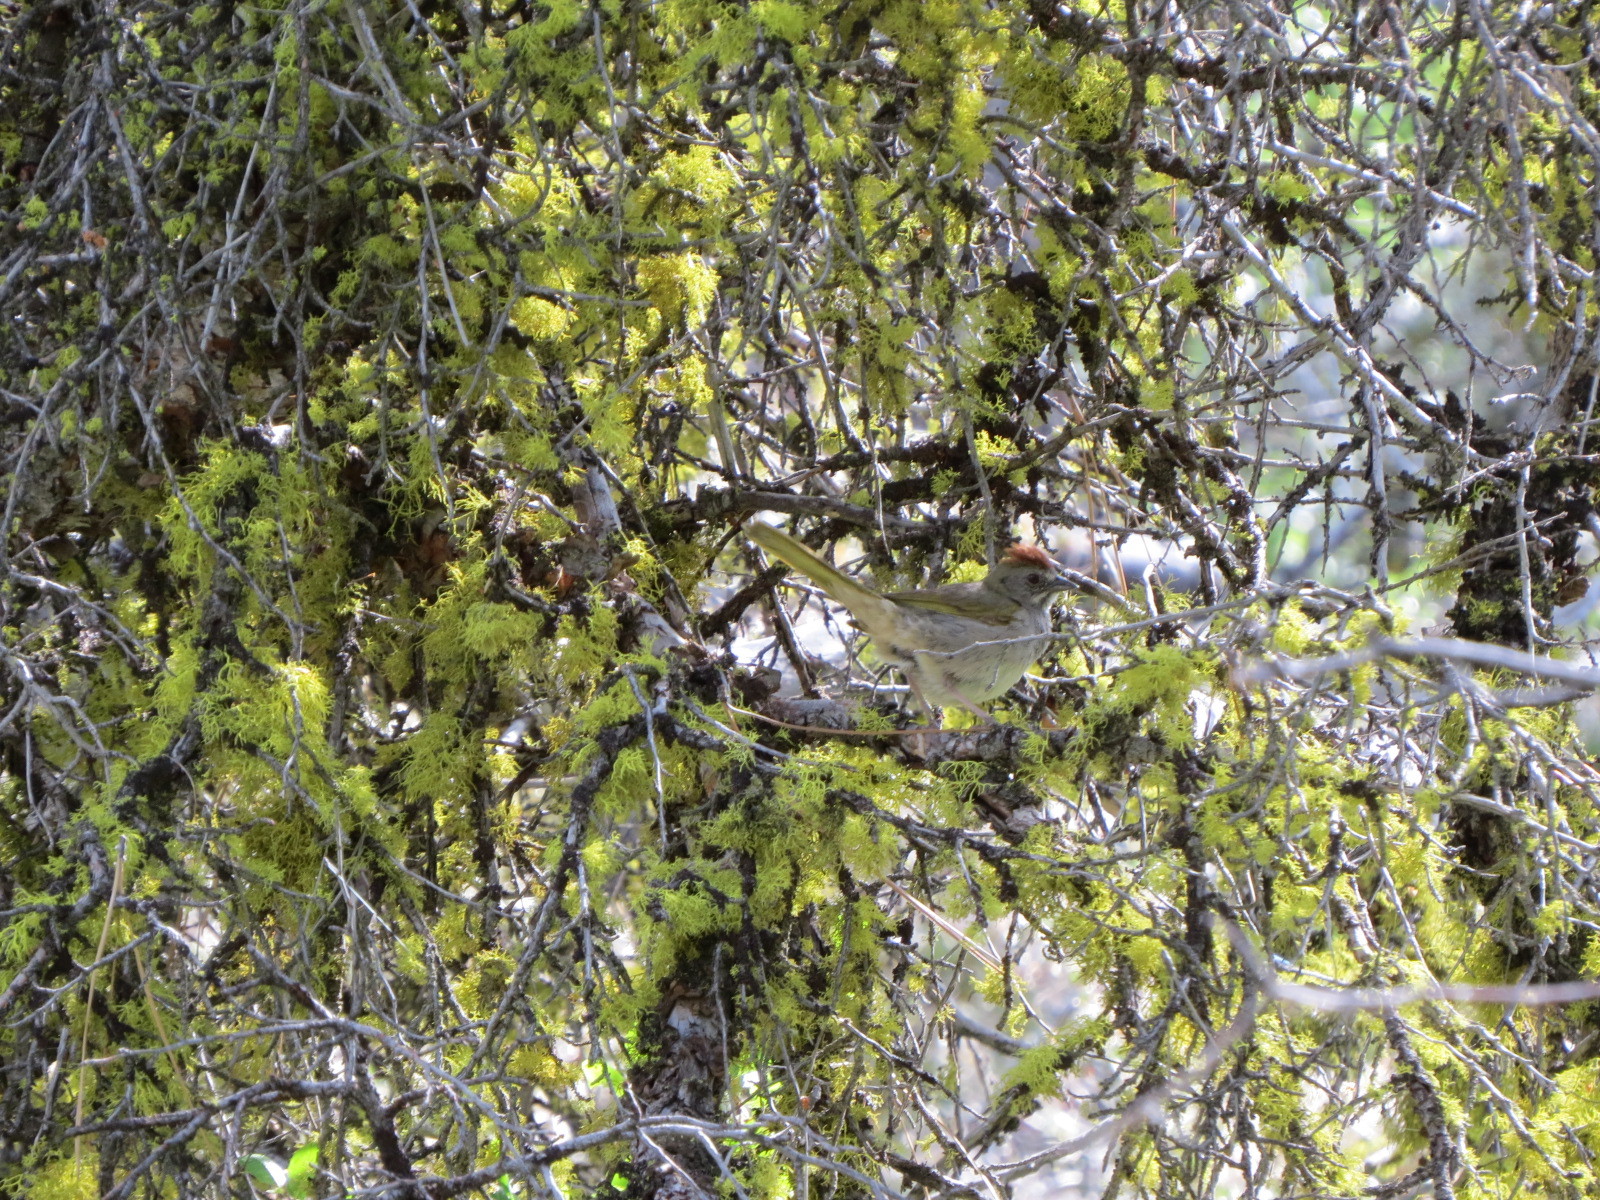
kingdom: Animalia
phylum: Chordata
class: Aves
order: Passeriformes
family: Passerellidae
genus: Pipilo
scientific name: Pipilo chlorurus
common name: Green-tailed towhee
